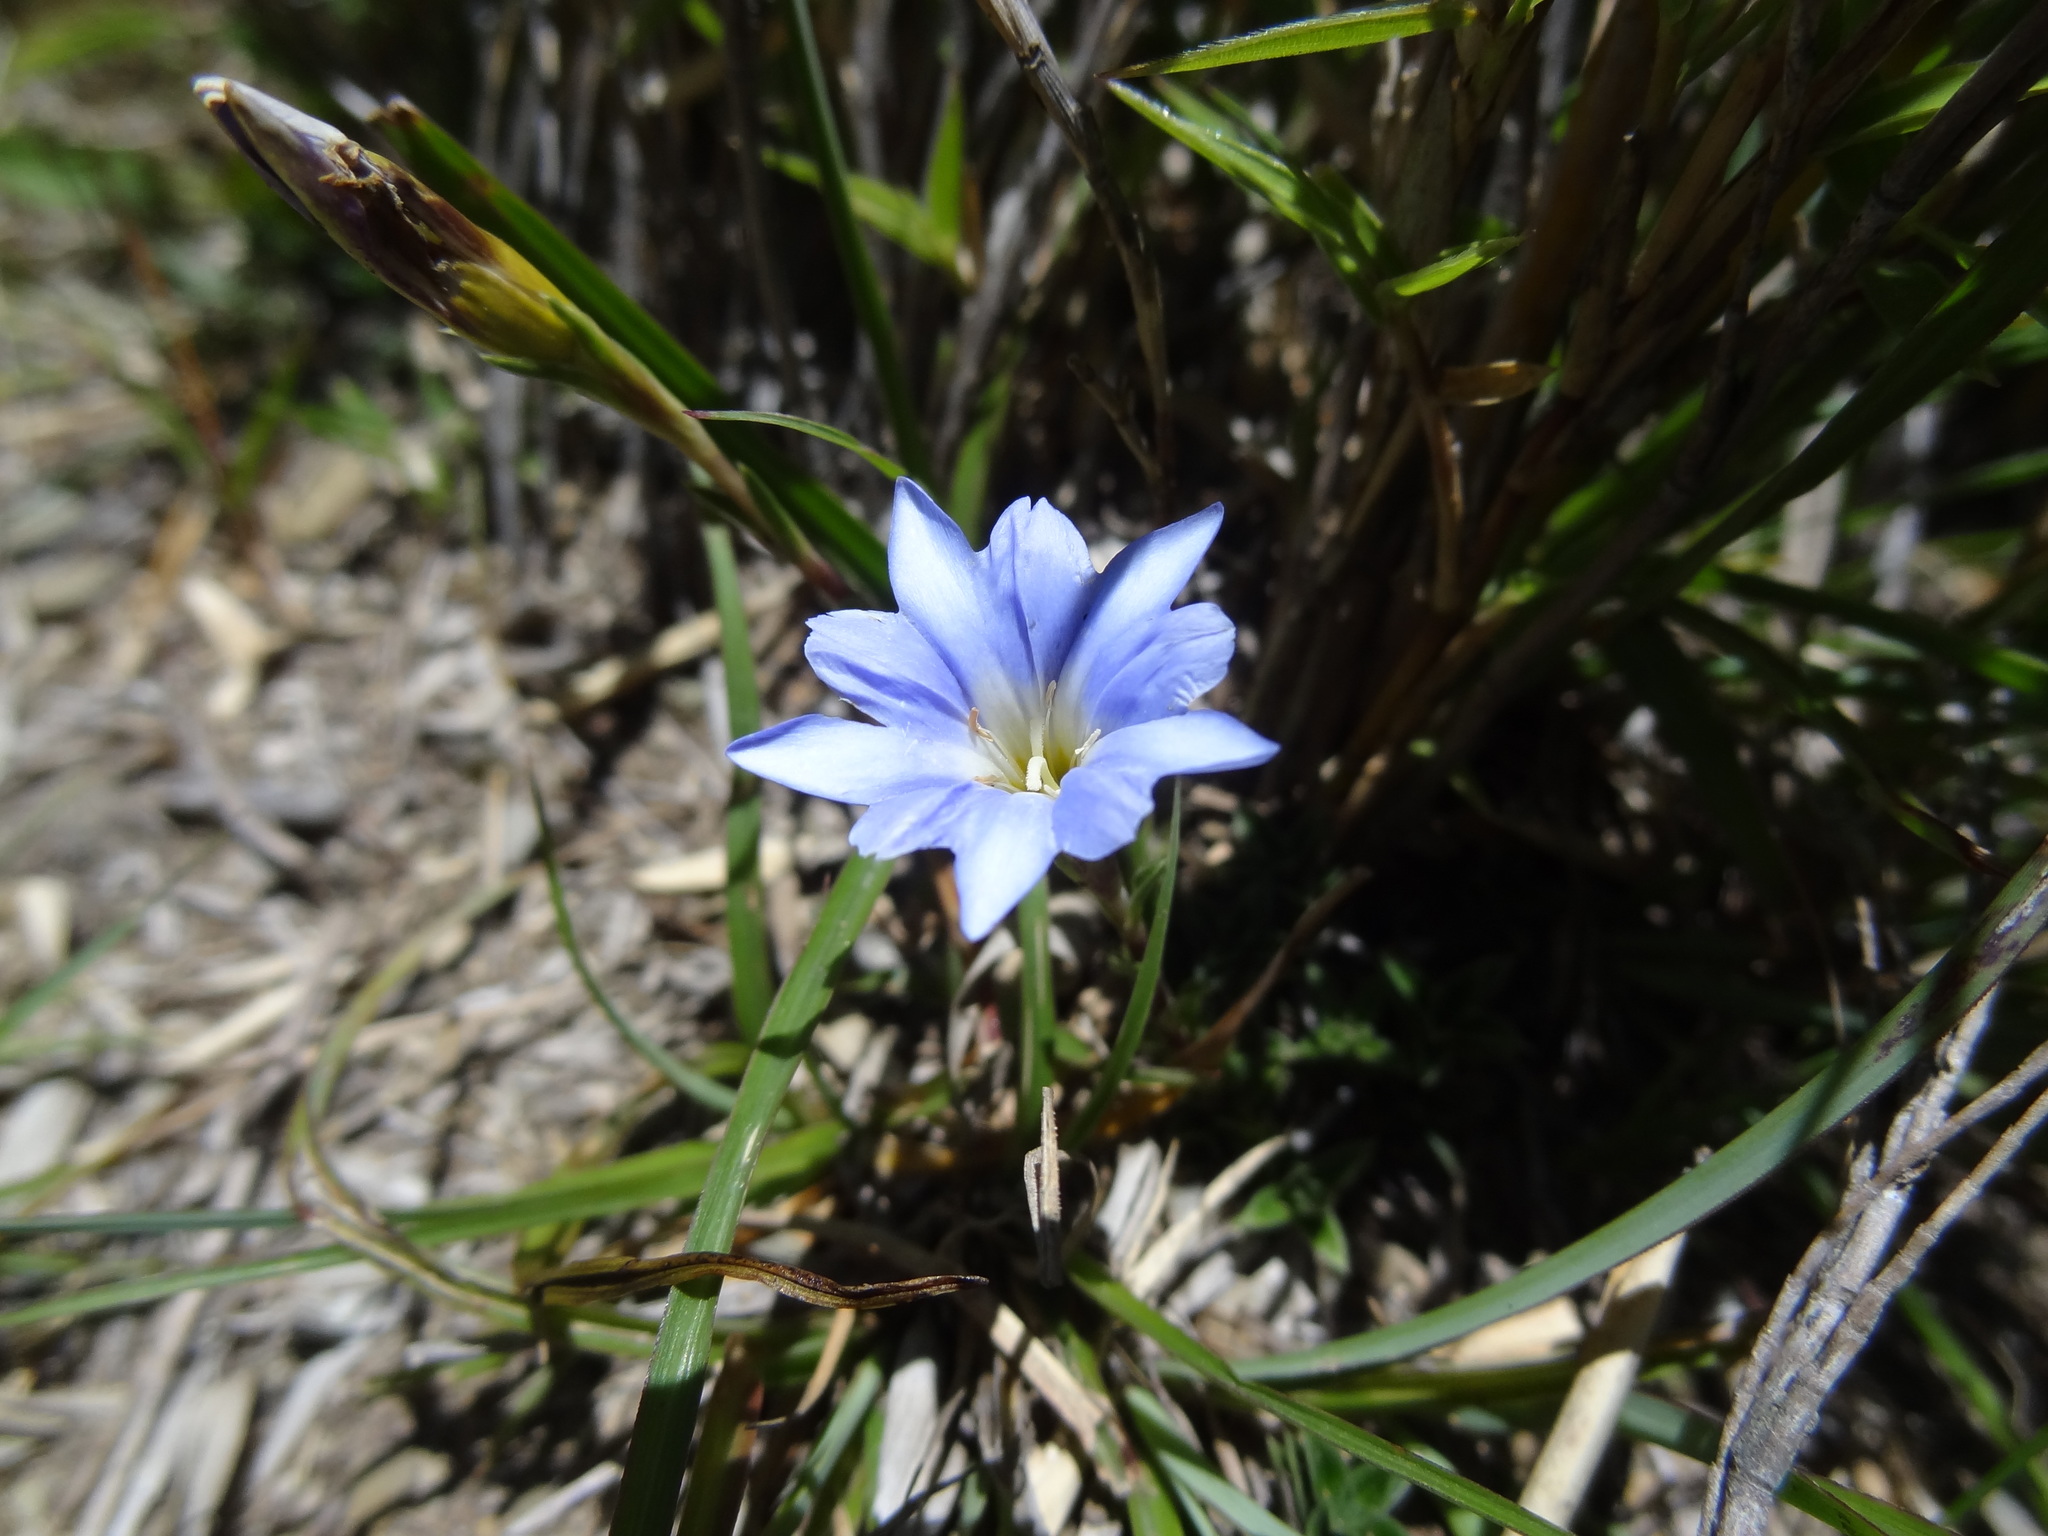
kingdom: Plantae
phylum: Tracheophyta
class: Magnoliopsida
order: Gentianales
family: Gentianaceae
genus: Gentiana
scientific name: Gentiana arisanensis
